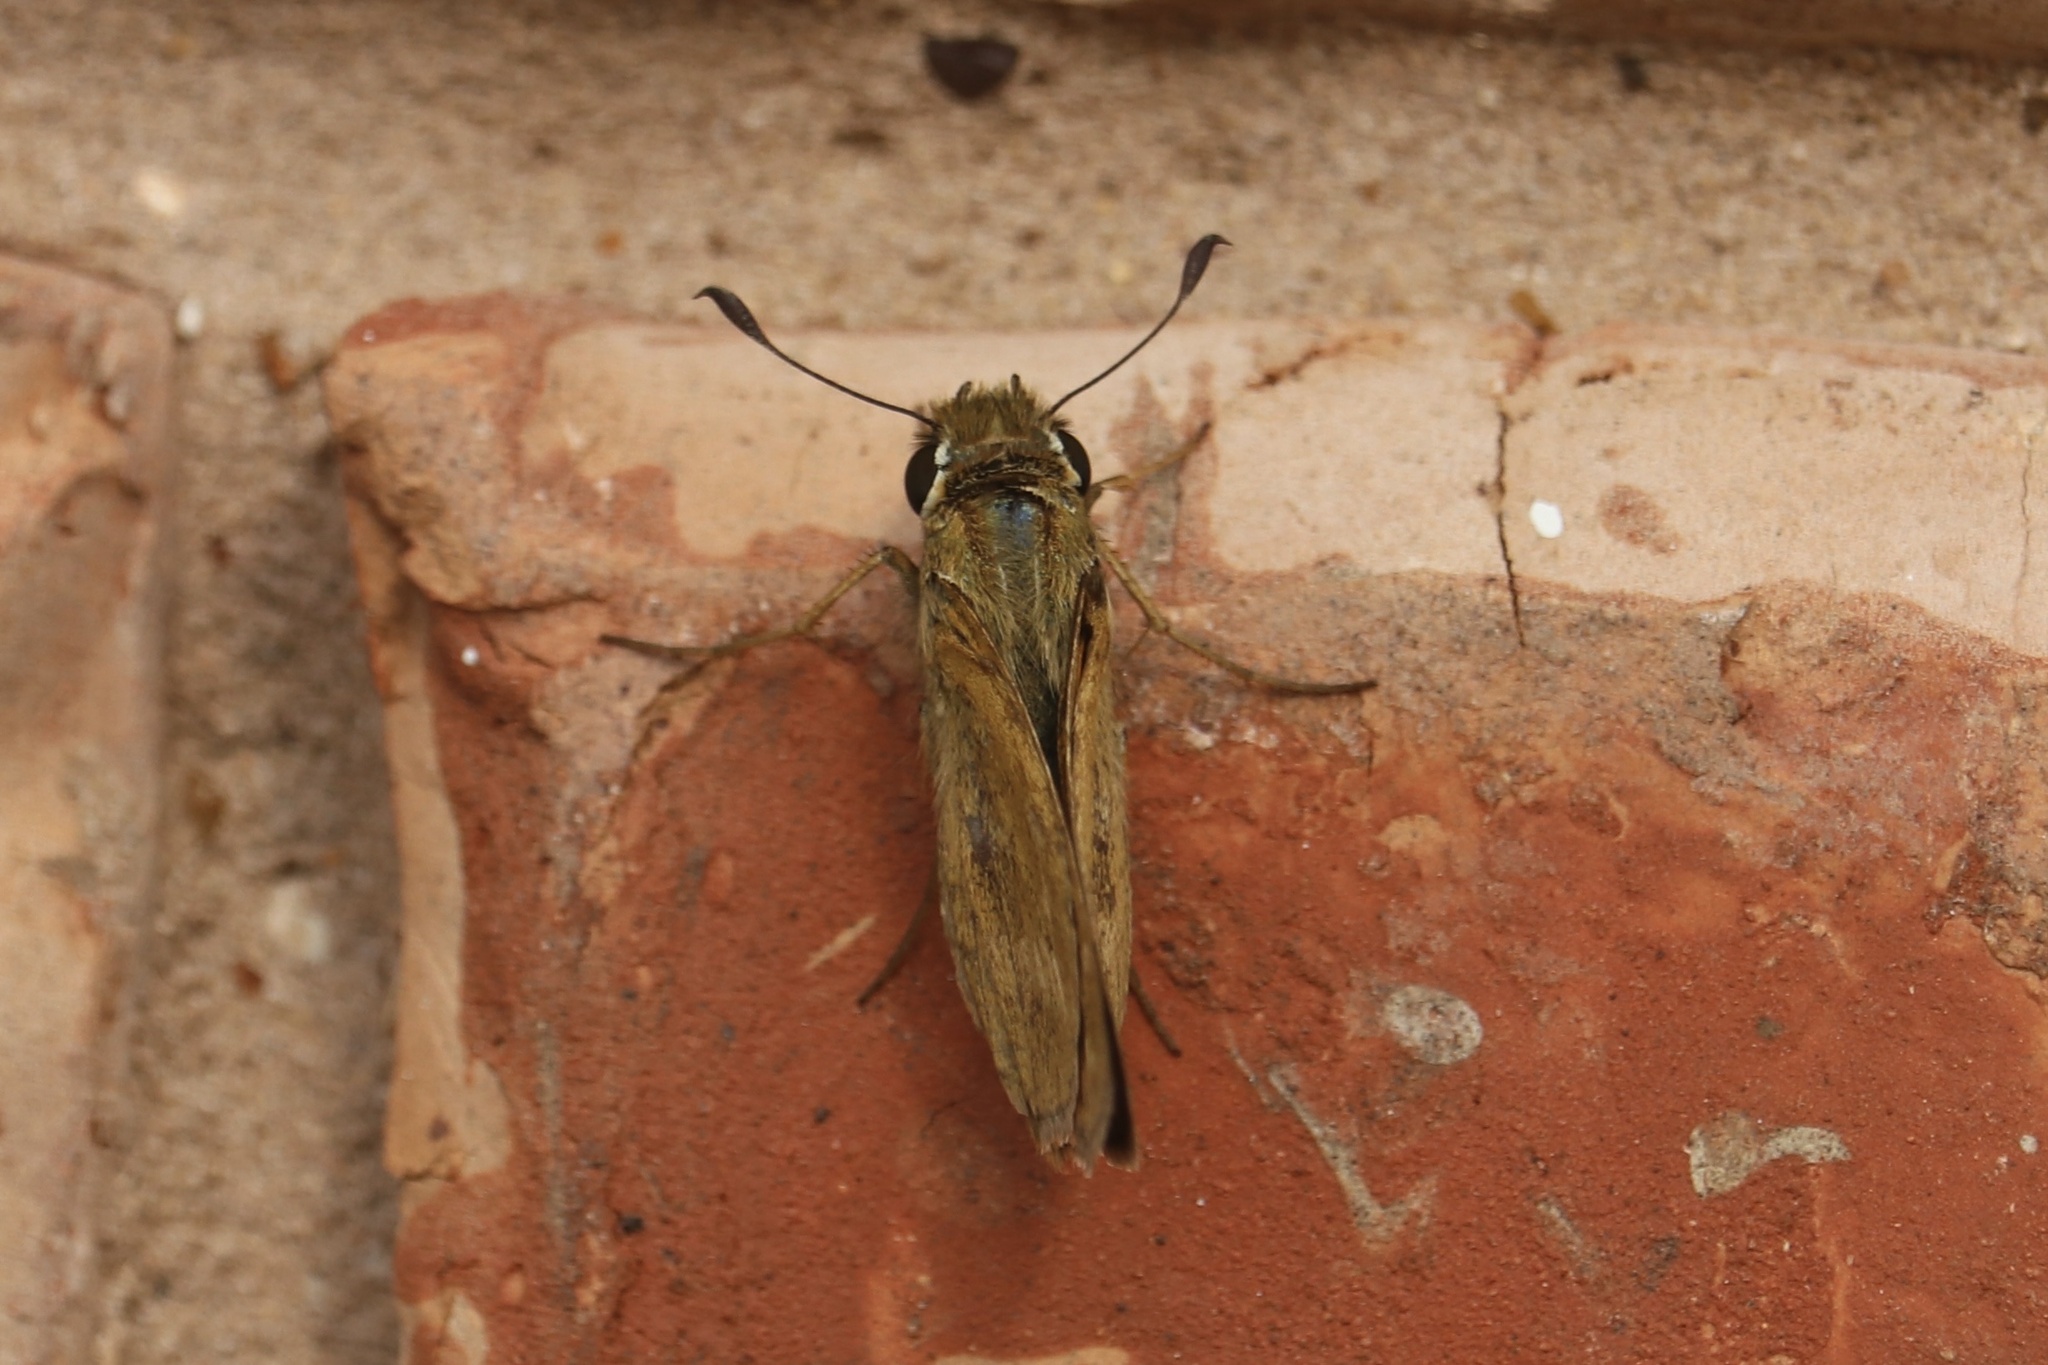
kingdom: Animalia
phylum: Arthropoda
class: Insecta
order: Lepidoptera
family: Hesperiidae
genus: Atalopedes
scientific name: Atalopedes
